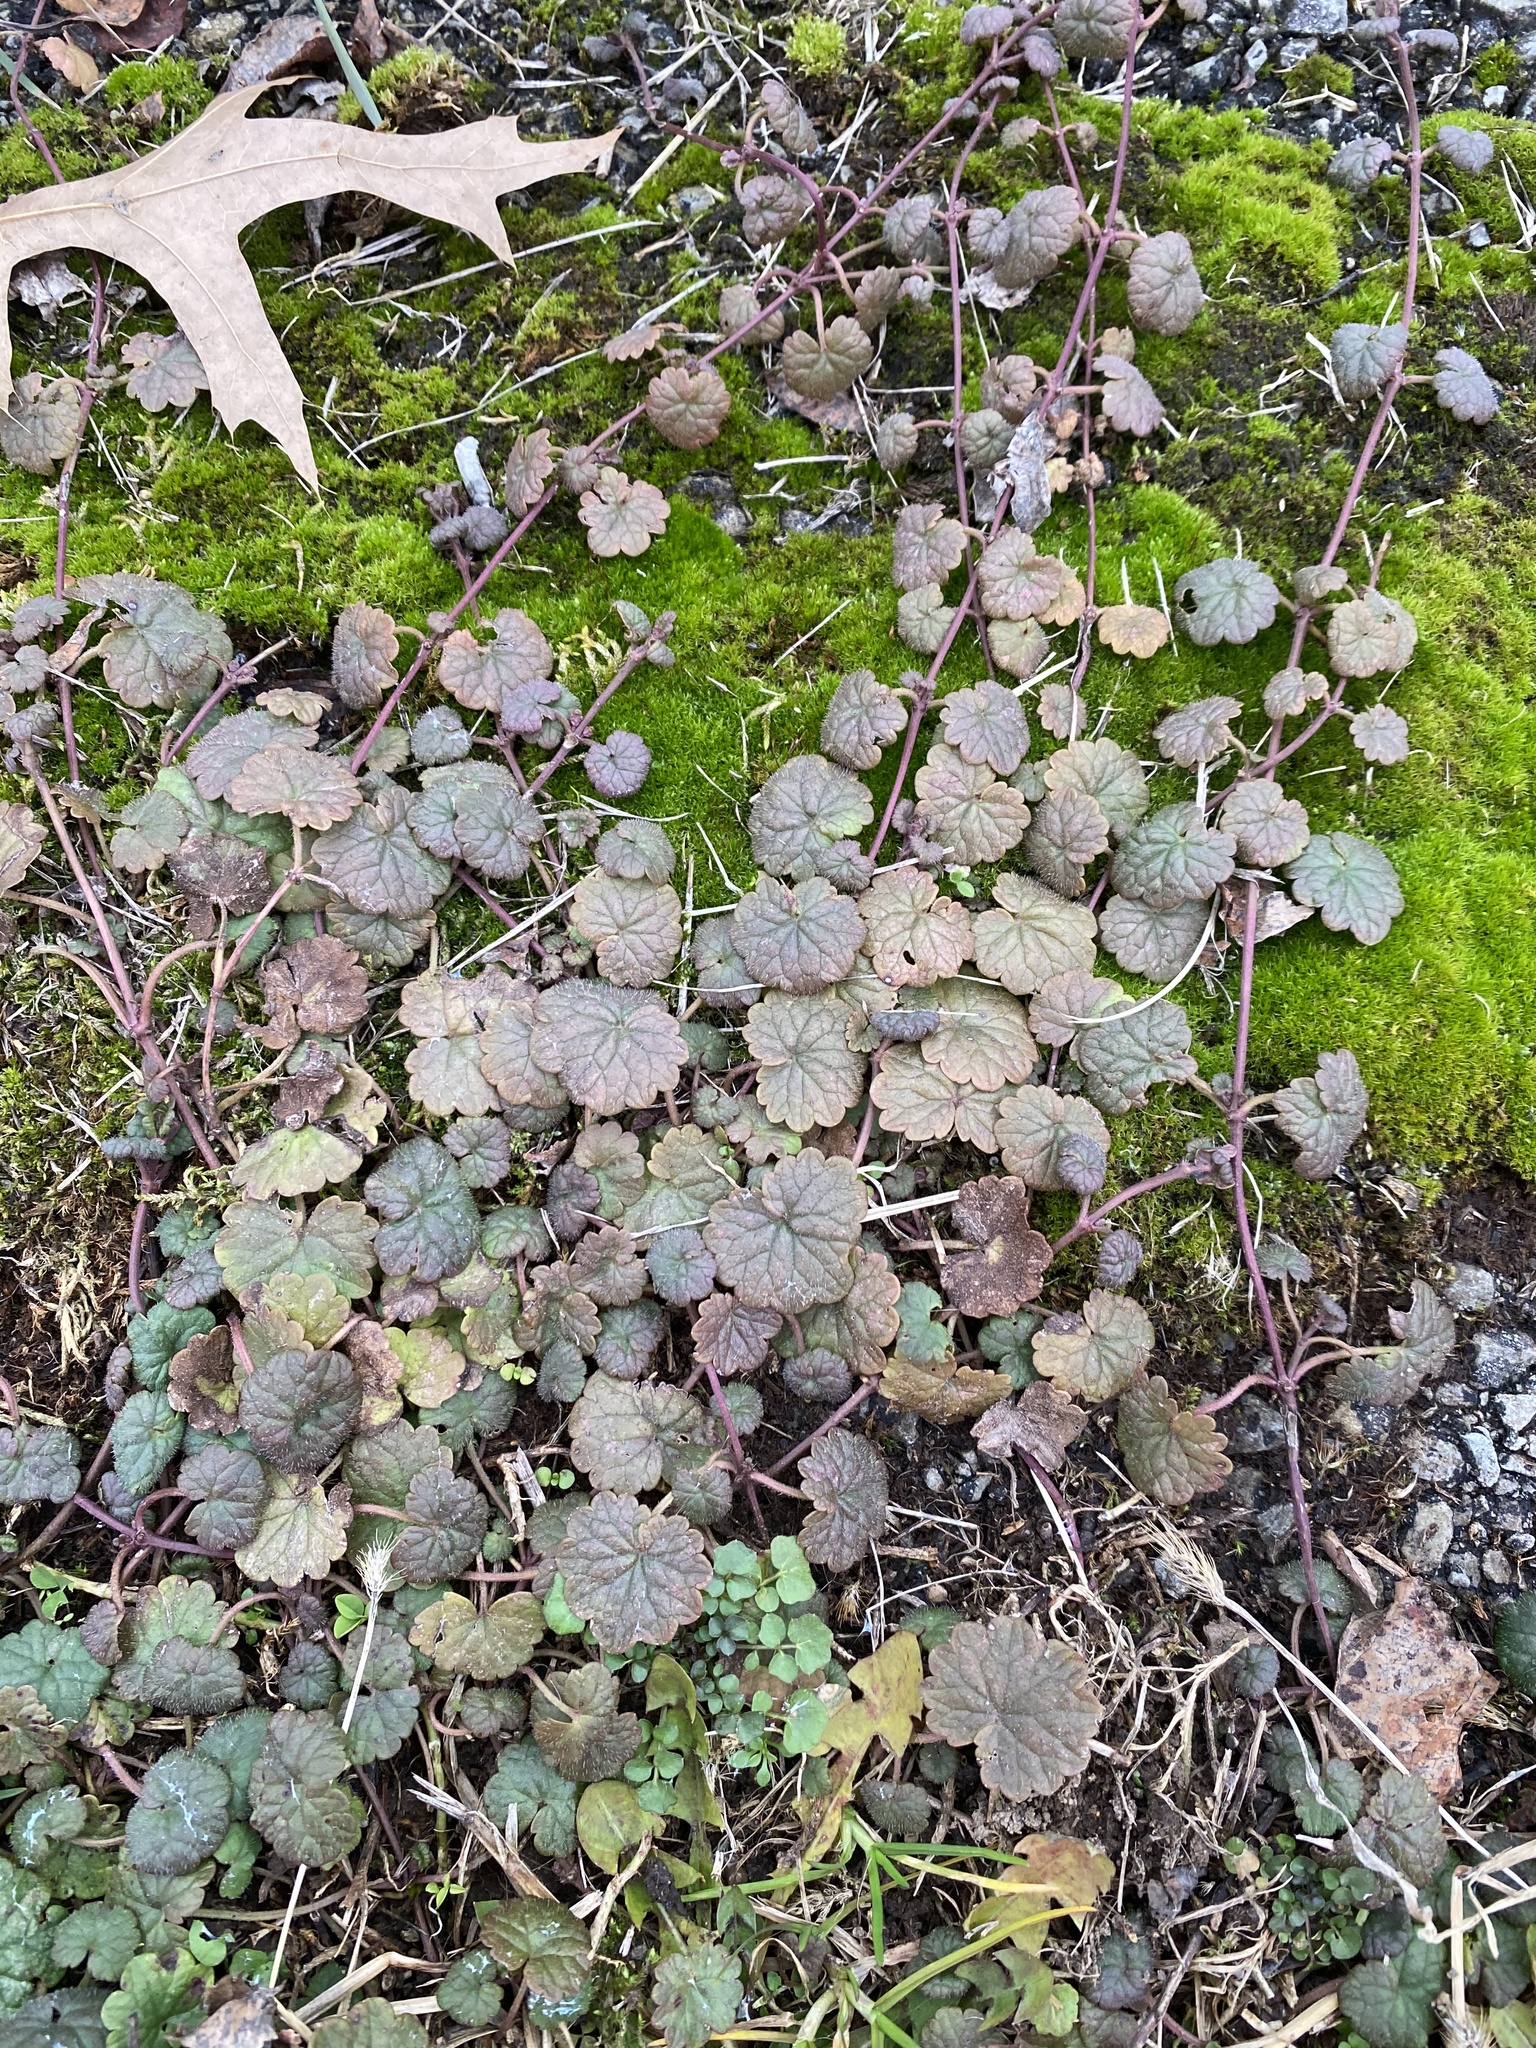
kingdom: Plantae
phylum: Tracheophyta
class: Magnoliopsida
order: Lamiales
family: Lamiaceae
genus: Glechoma
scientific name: Glechoma hederacea
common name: Ground ivy
